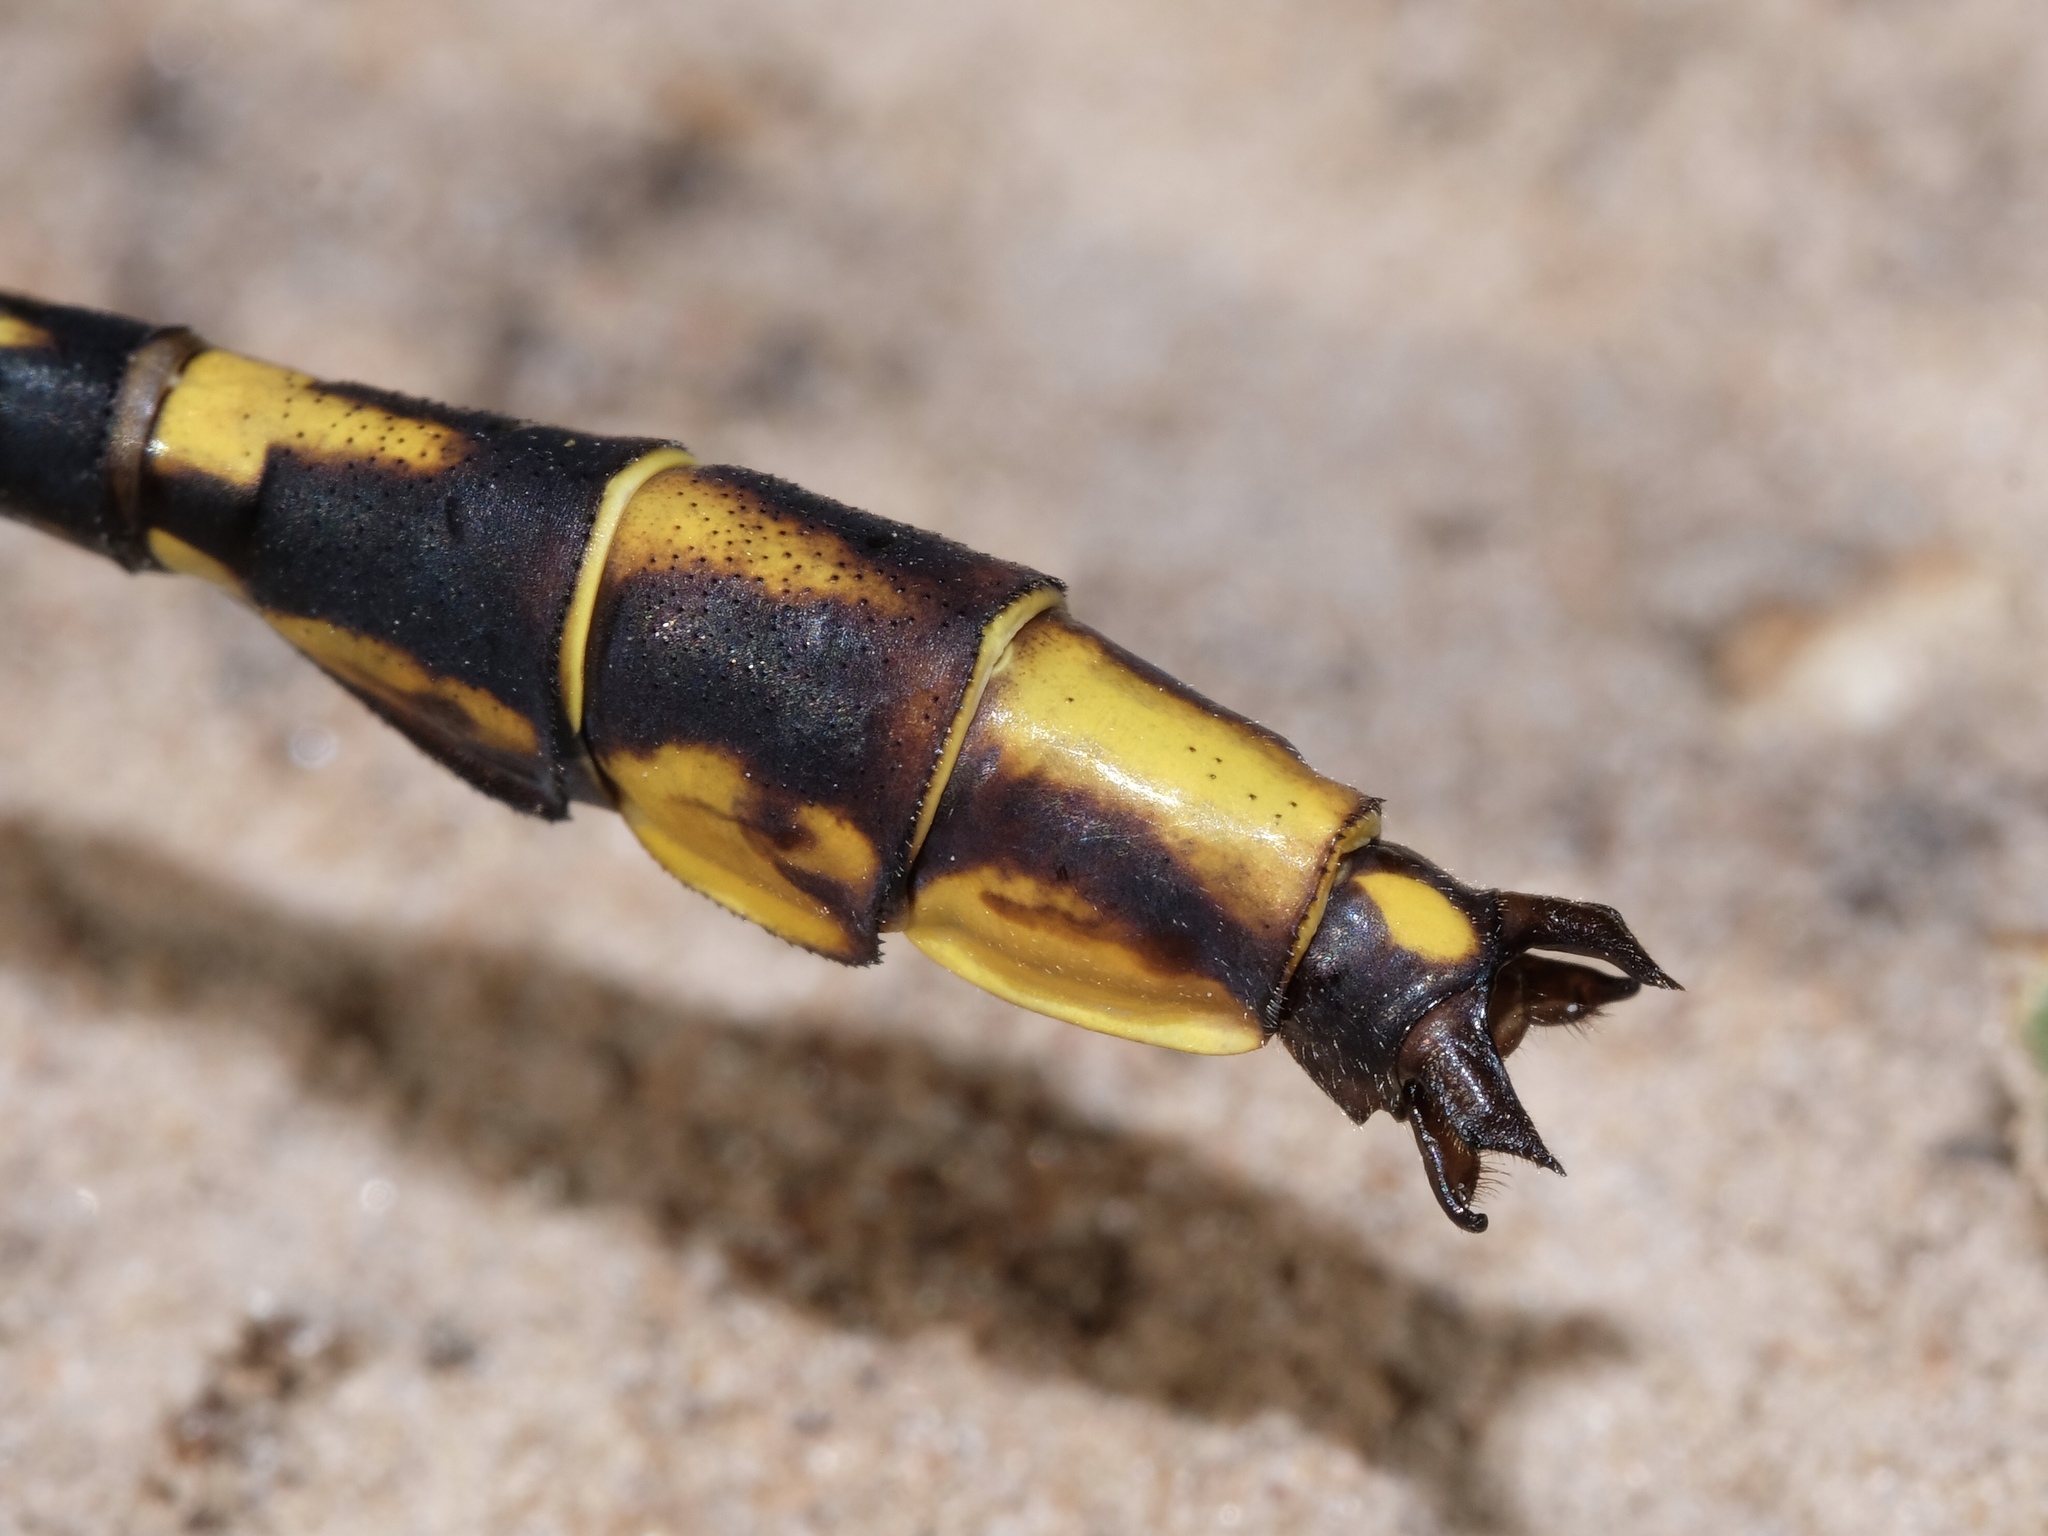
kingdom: Animalia
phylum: Arthropoda
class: Insecta
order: Odonata
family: Gomphidae
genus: Phanogomphus
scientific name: Phanogomphus militaris
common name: Sulphur-tipped clubtail
